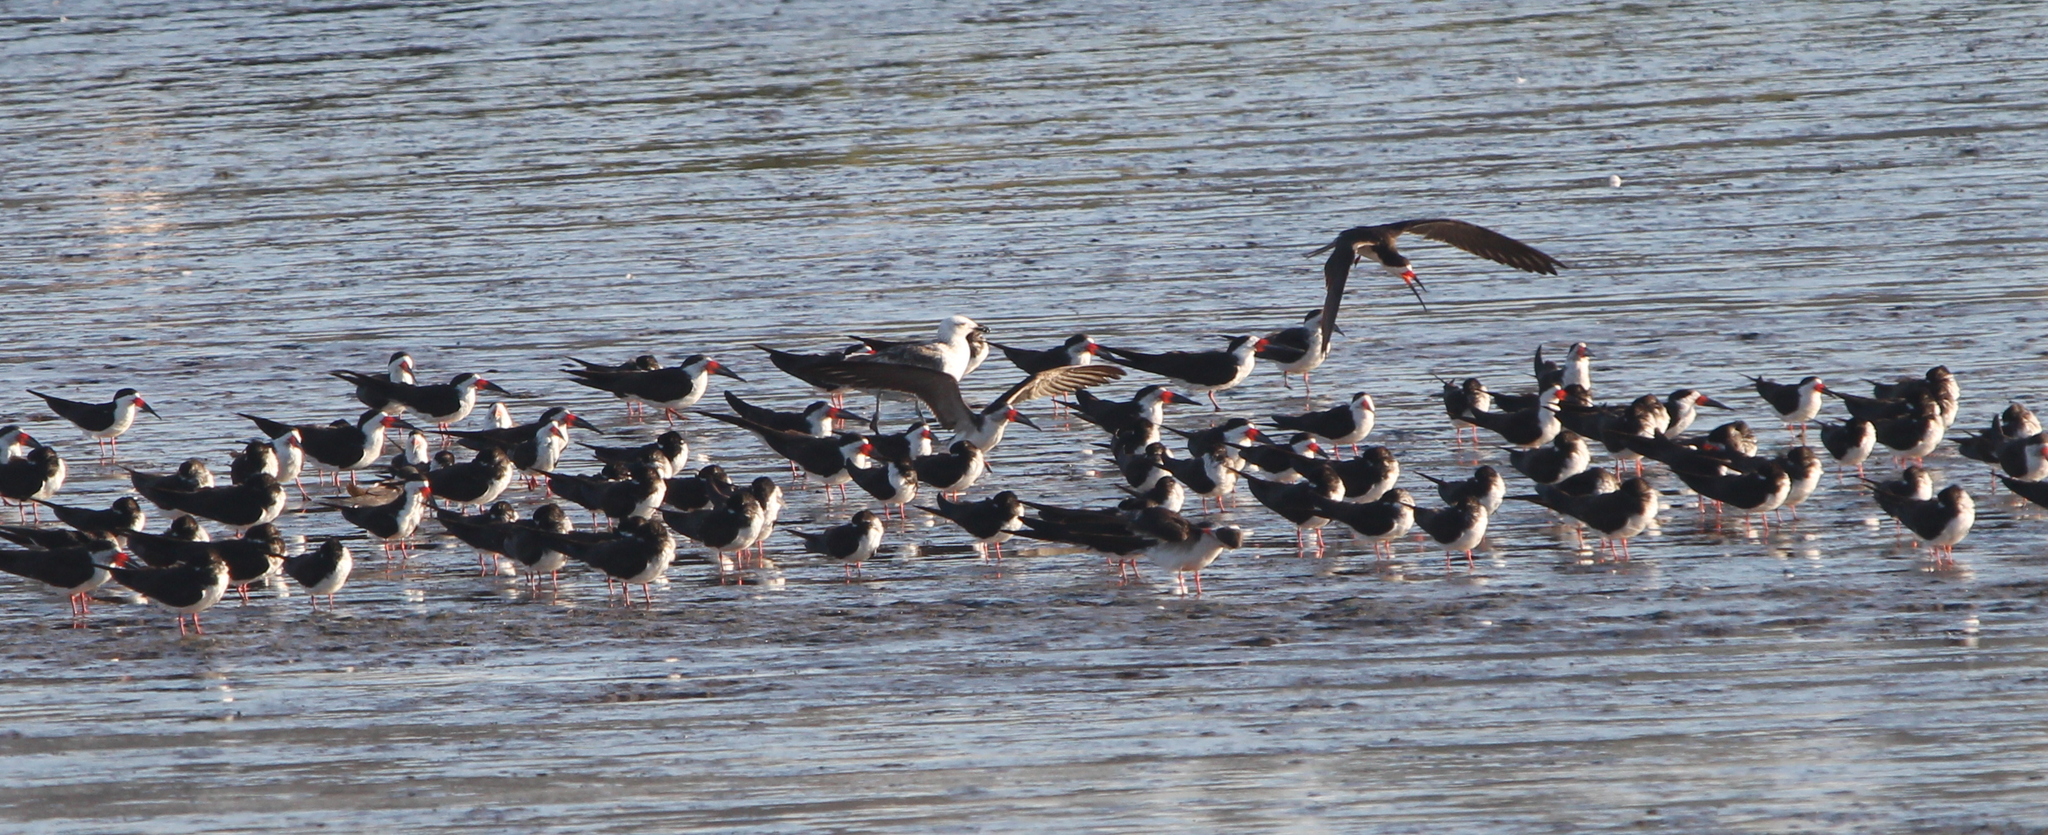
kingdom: Animalia
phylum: Chordata
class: Aves
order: Charadriiformes
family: Laridae
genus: Rynchops
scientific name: Rynchops niger
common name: Black skimmer
